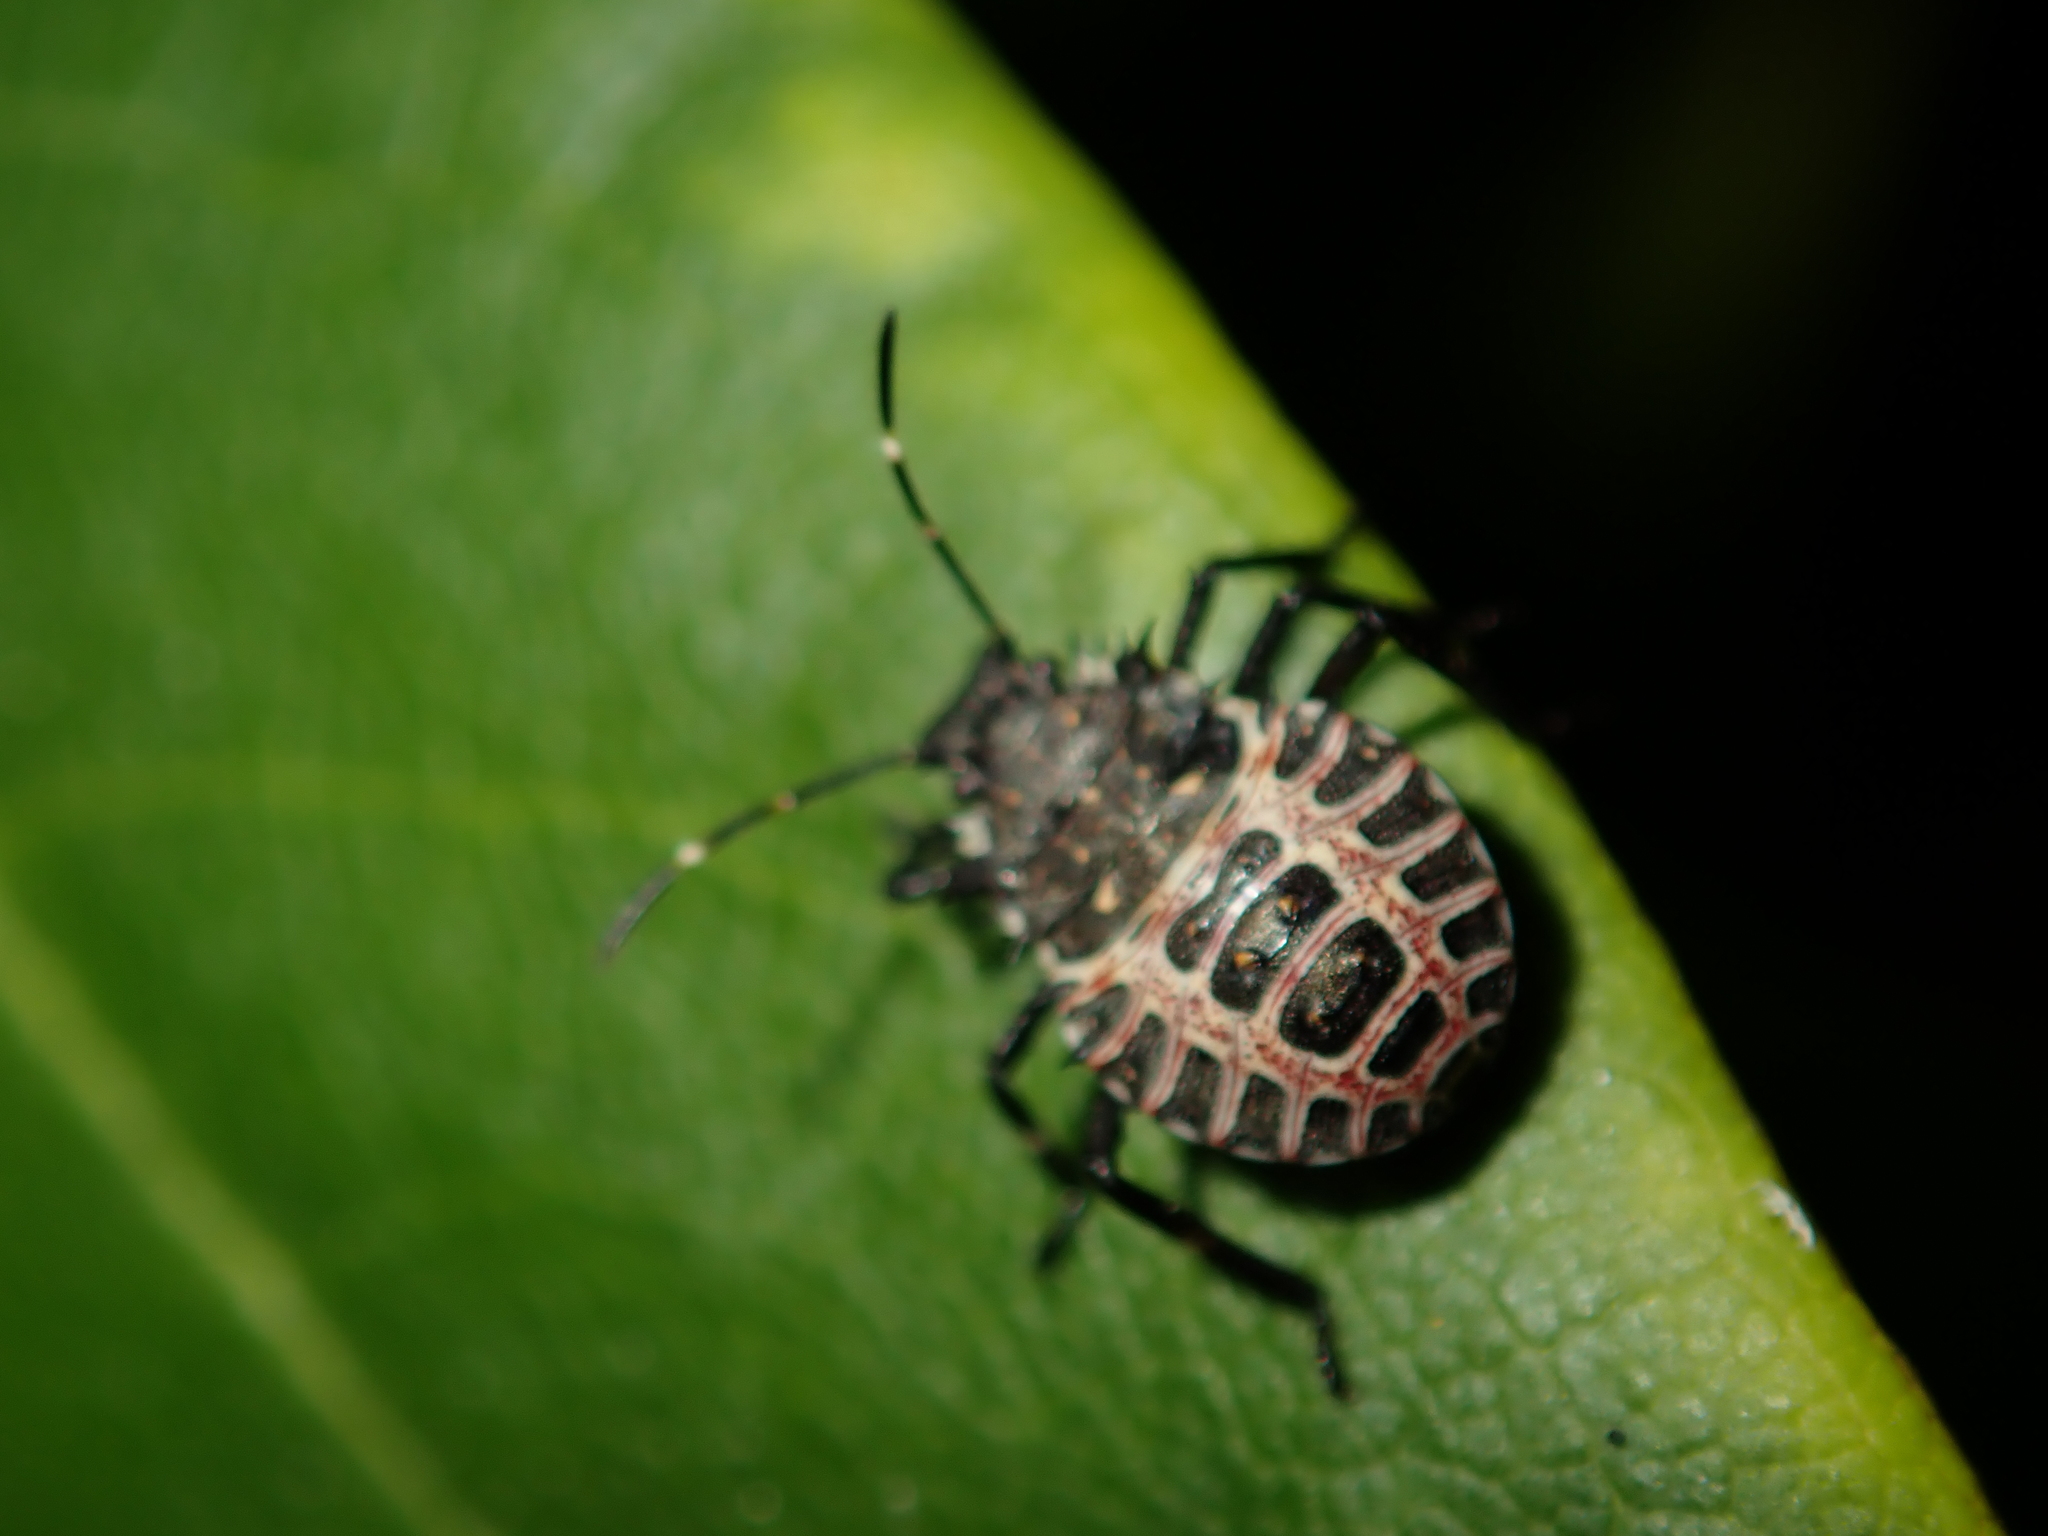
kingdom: Animalia
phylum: Arthropoda
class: Insecta
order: Hemiptera
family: Pentatomidae
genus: Halyomorpha
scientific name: Halyomorpha halys
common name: Brown marmorated stink bug
